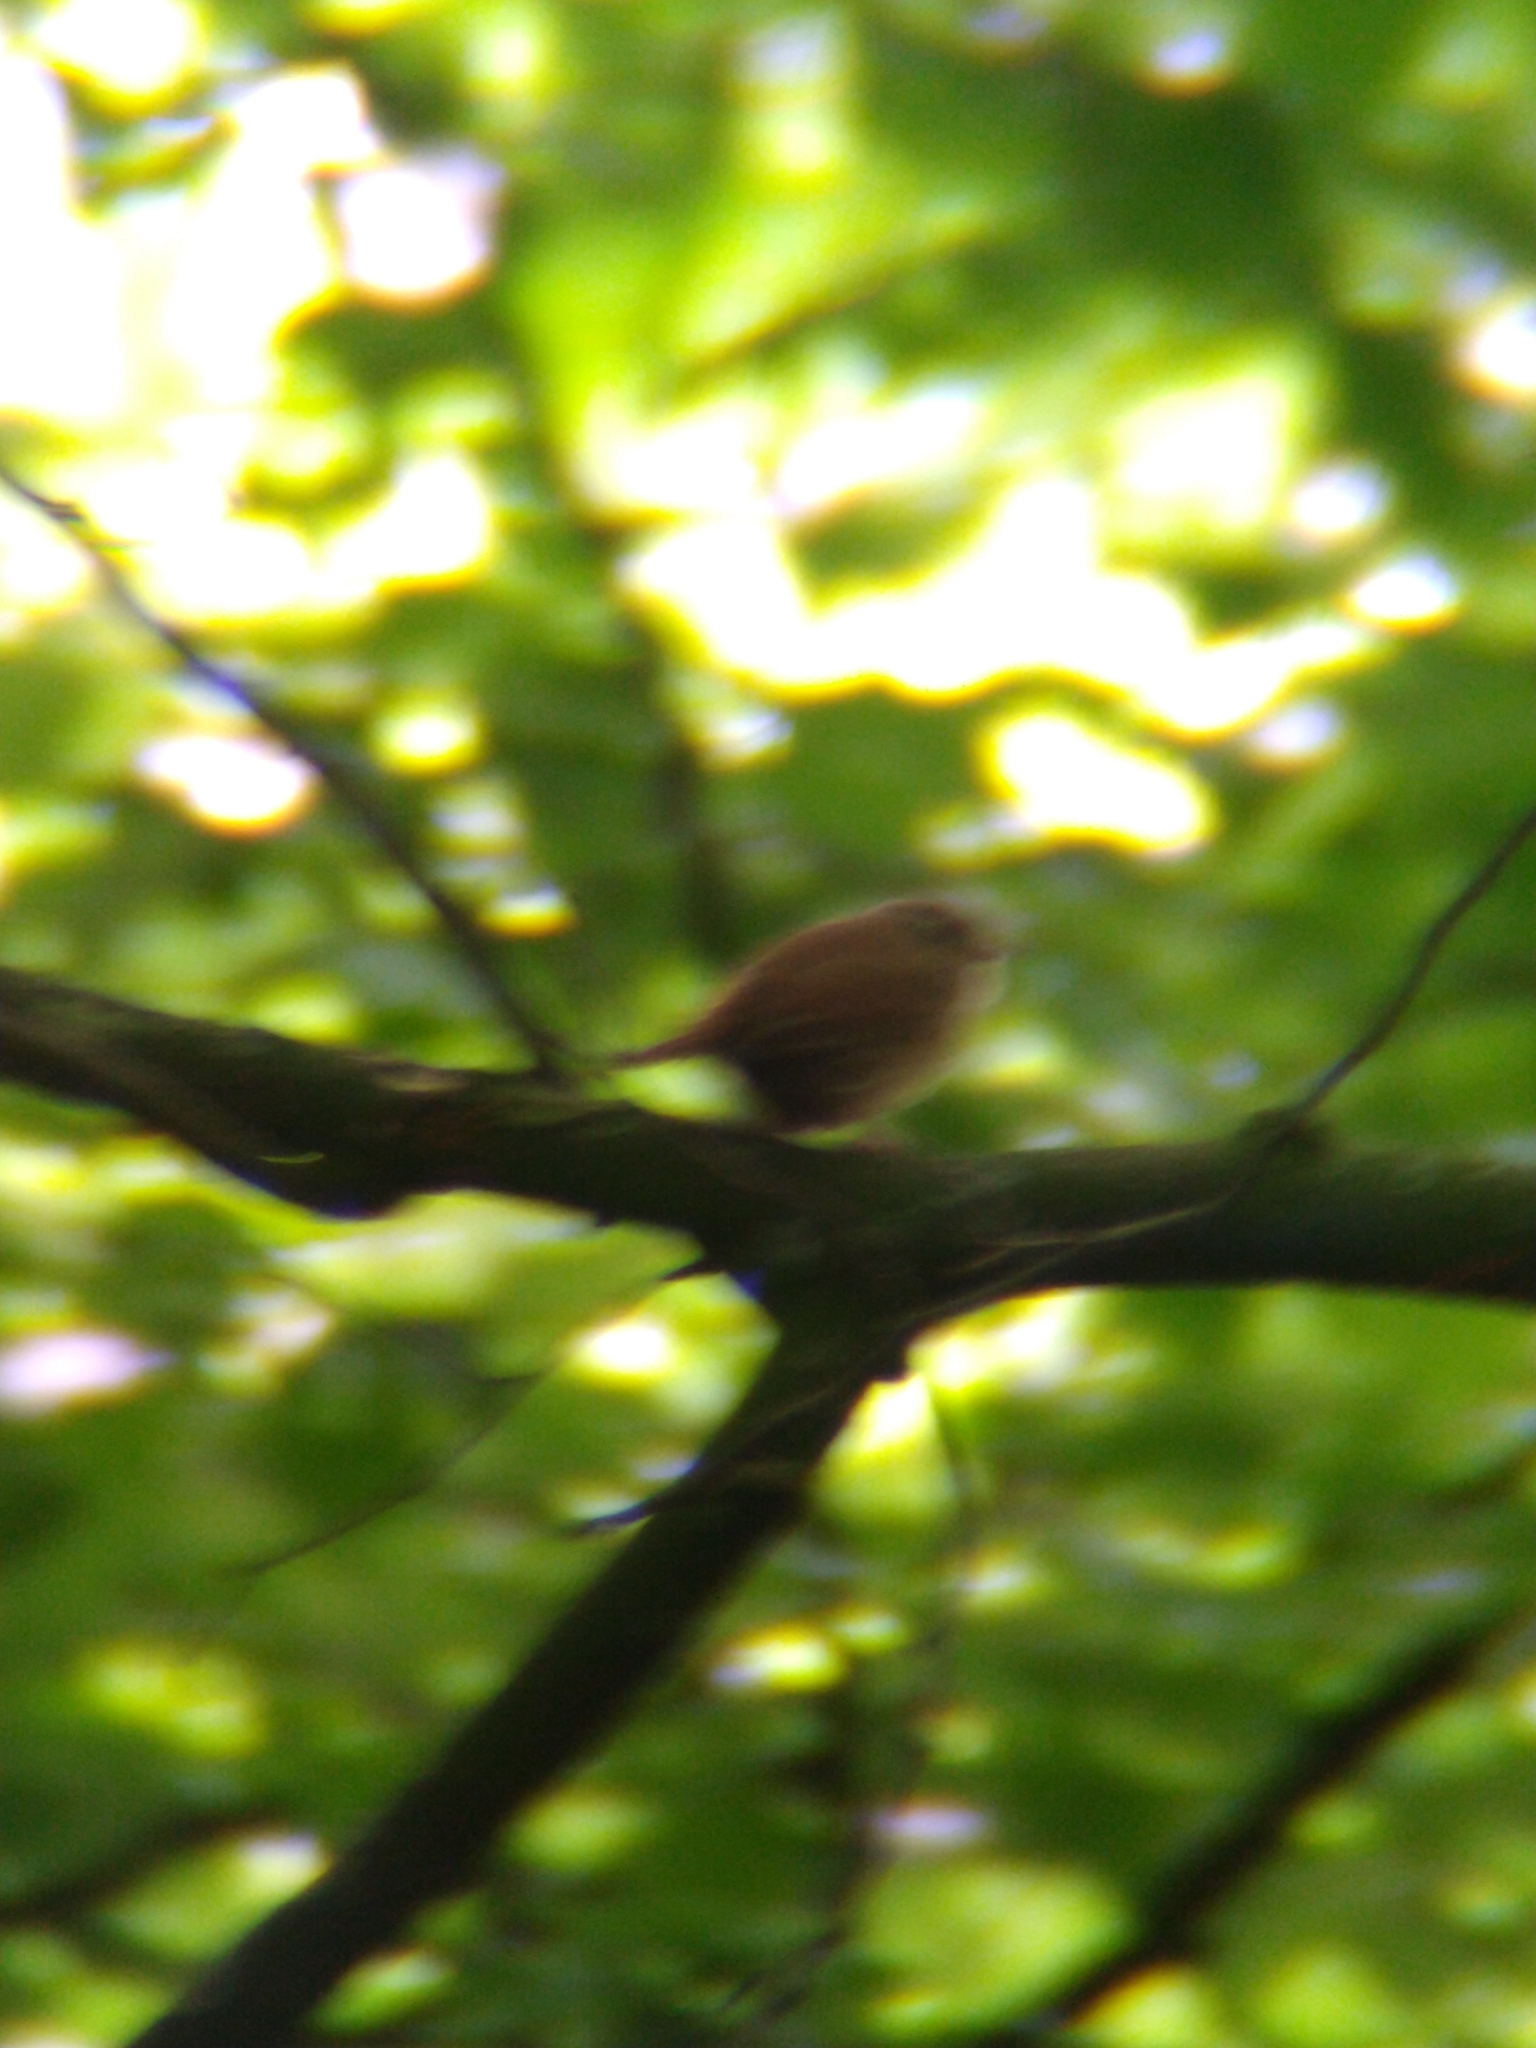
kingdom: Animalia
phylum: Chordata
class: Aves
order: Passeriformes
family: Troglodytidae
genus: Troglodytes
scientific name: Troglodytes troglodytes
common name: Eurasian wren
